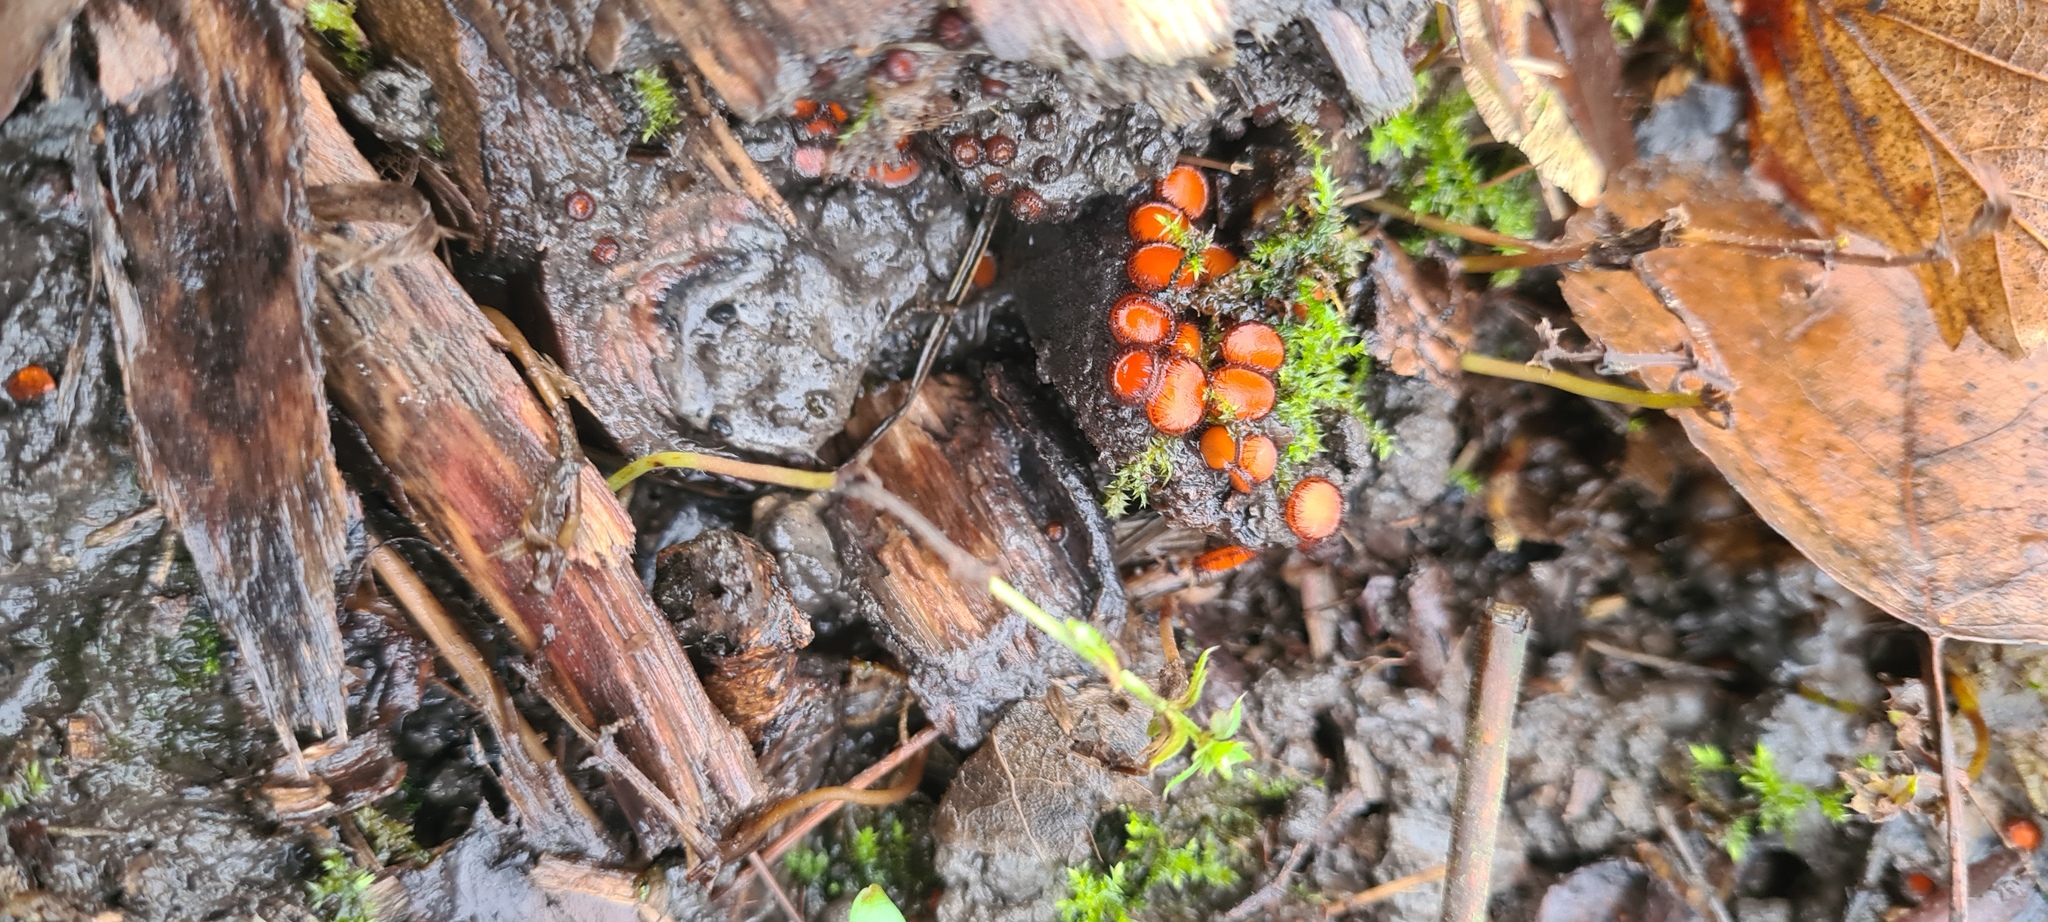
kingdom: Fungi
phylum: Ascomycota
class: Pezizomycetes
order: Pezizales
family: Pyronemataceae
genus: Scutellinia
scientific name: Scutellinia
